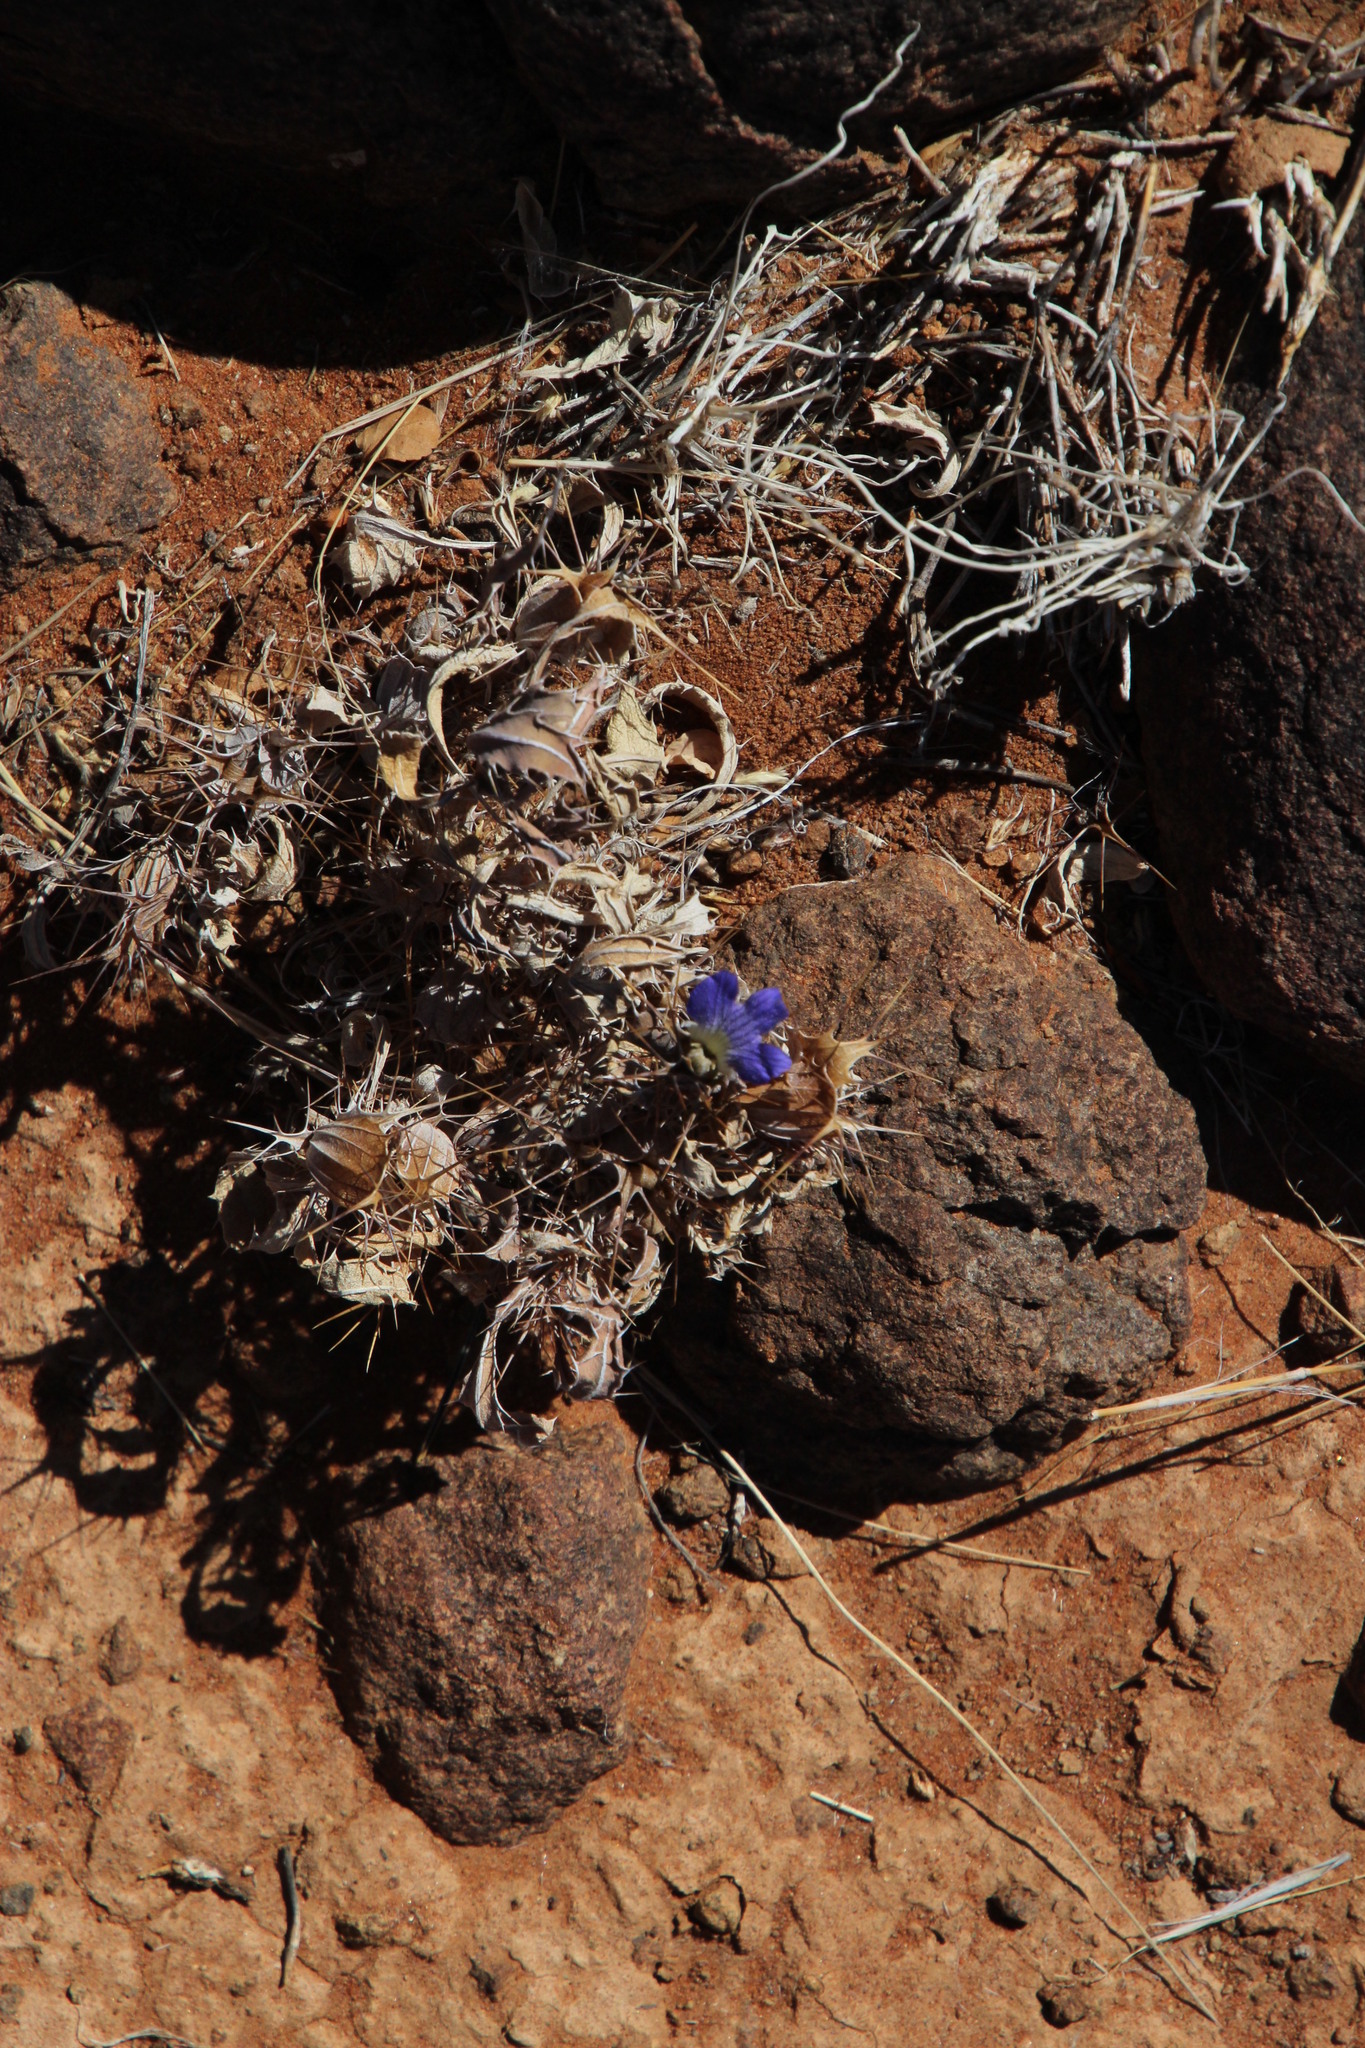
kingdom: Plantae
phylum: Tracheophyta
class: Magnoliopsida
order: Lamiales
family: Acanthaceae
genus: Blepharis
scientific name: Blepharis furcata
